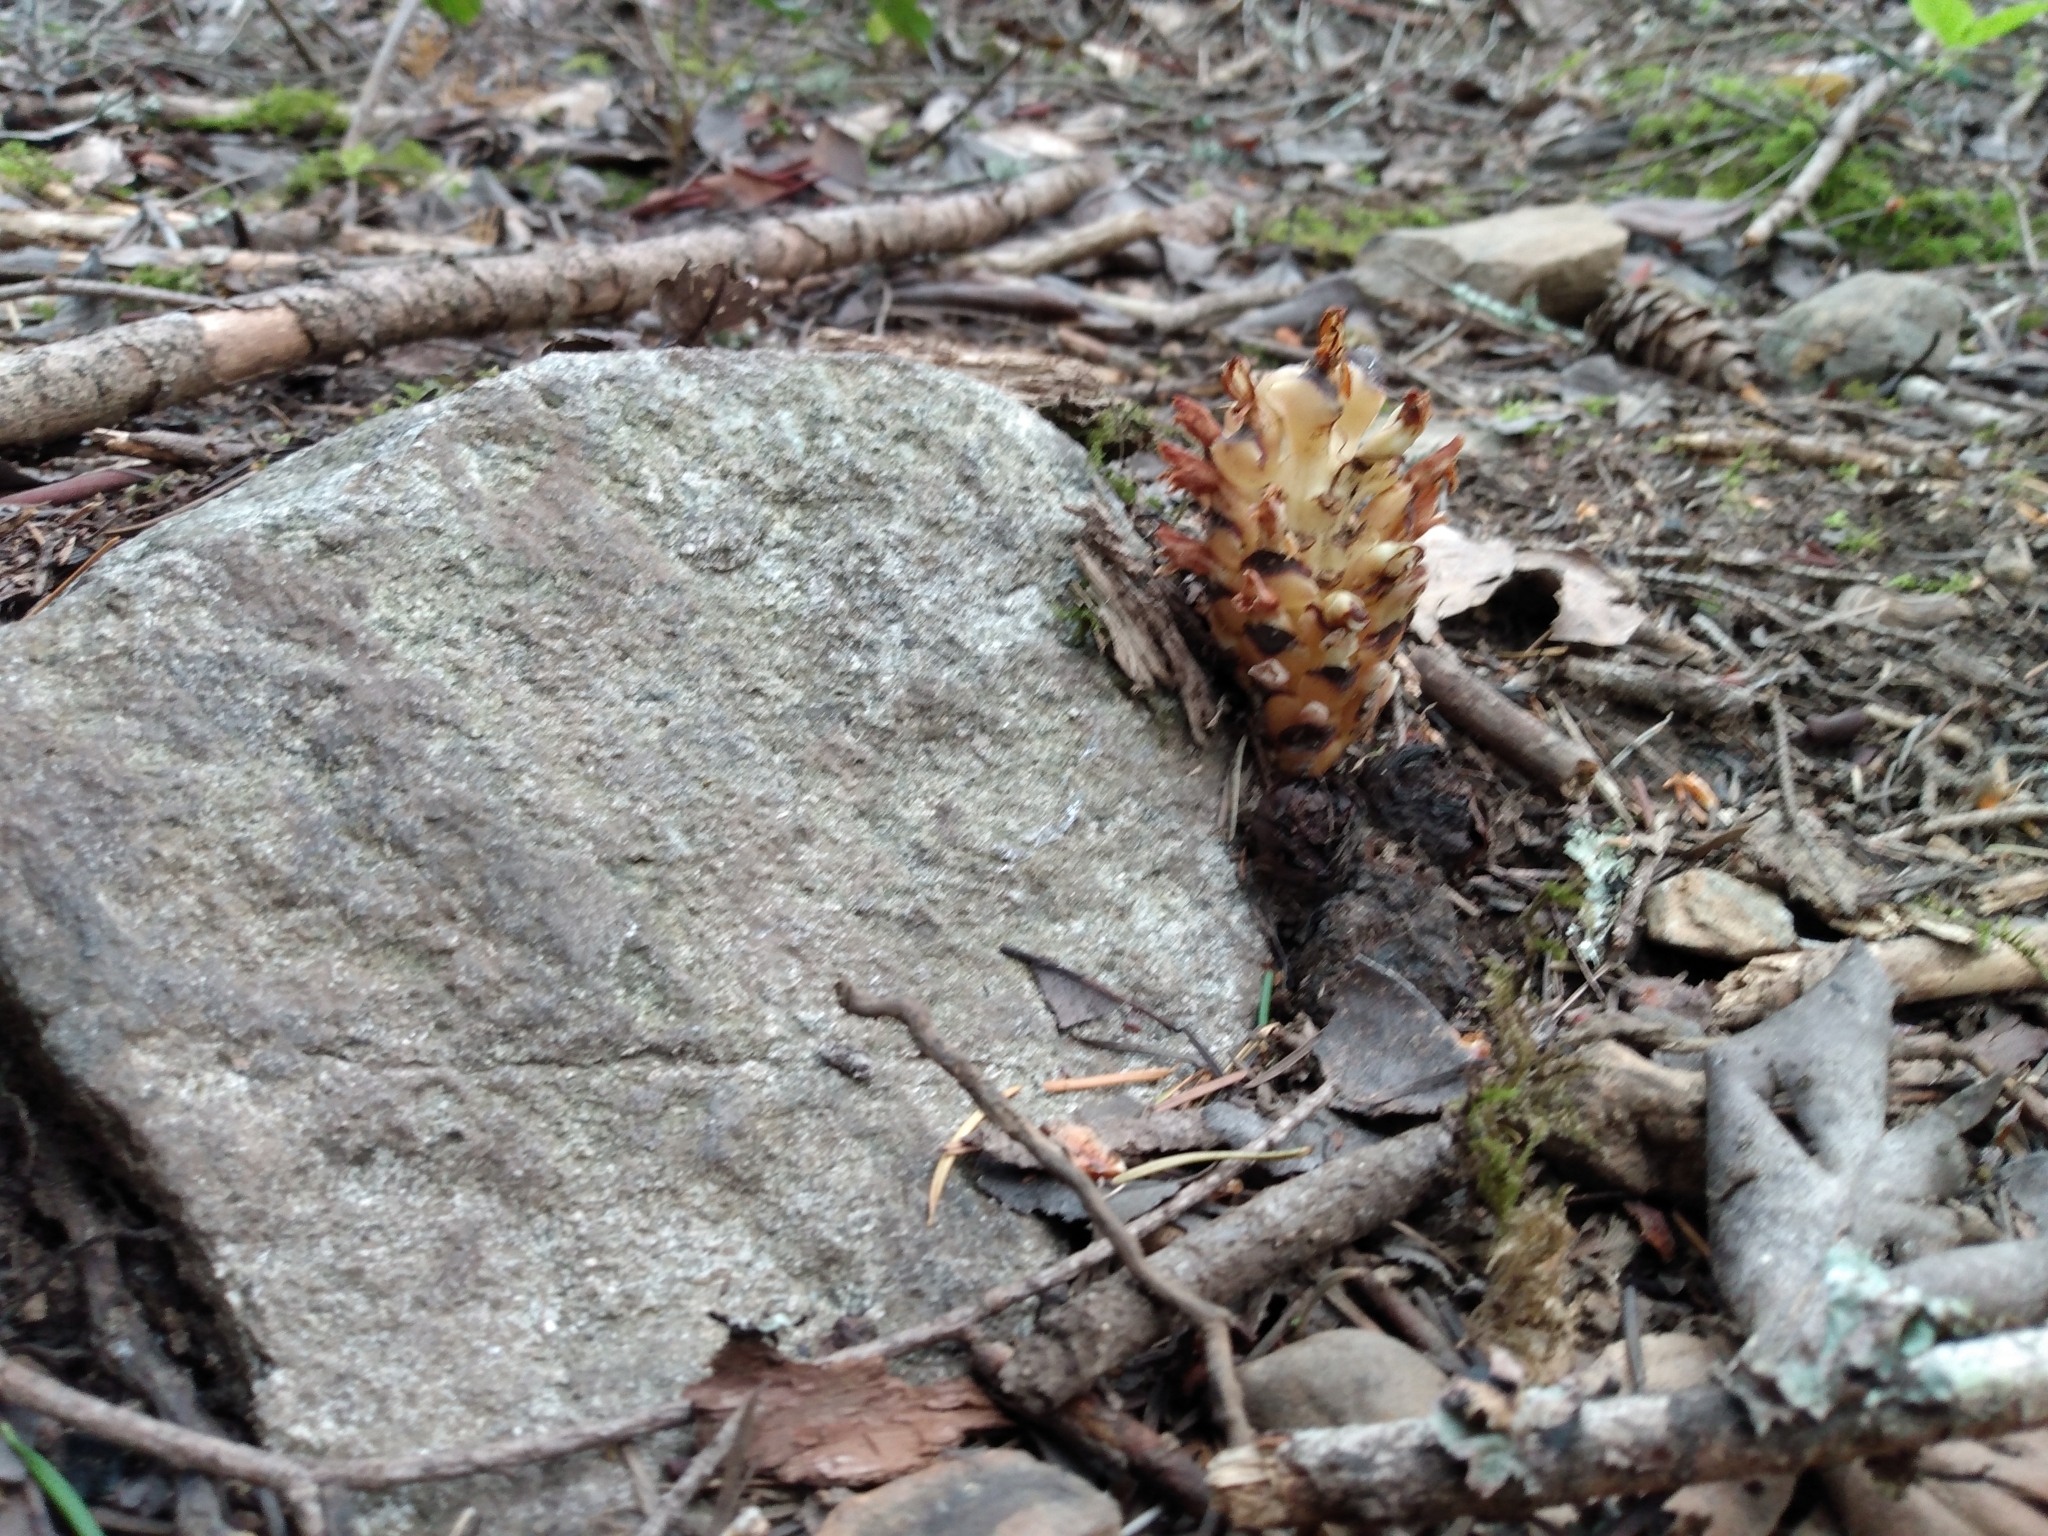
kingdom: Plantae
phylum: Tracheophyta
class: Magnoliopsida
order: Lamiales
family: Orobanchaceae
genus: Kopsiopsis
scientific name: Kopsiopsis hookeri
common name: Hooker's groundcone
